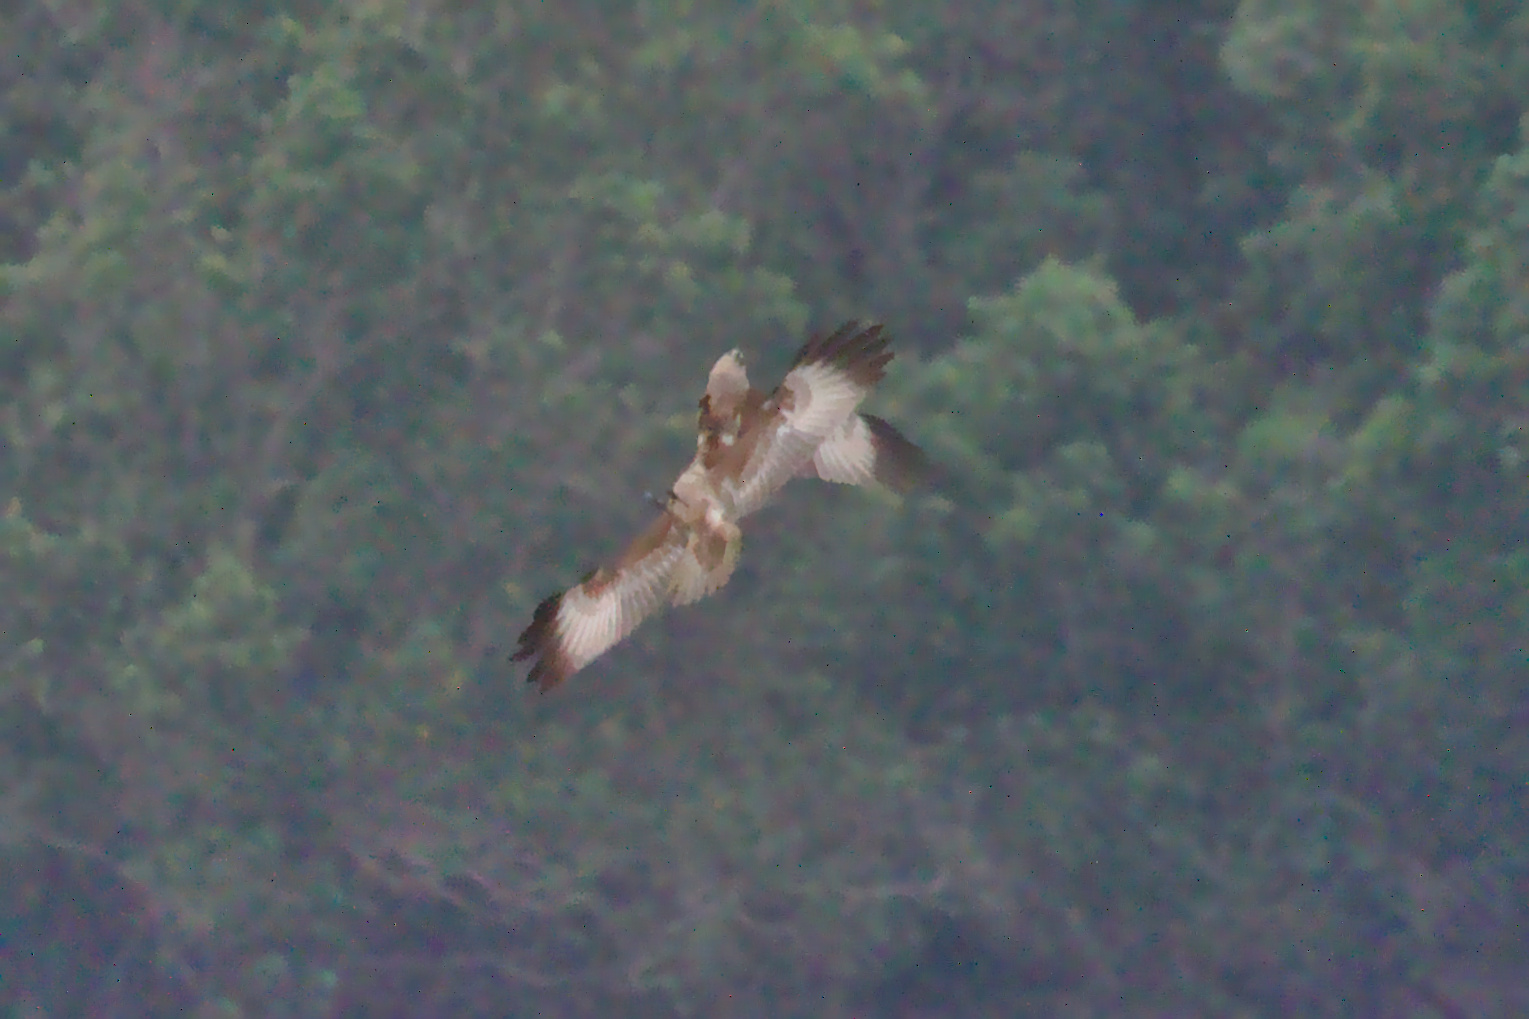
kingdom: Animalia
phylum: Chordata
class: Aves
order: Accipitriformes
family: Accipitridae
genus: Haliastur
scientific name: Haliastur indus
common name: Brahminy kite
